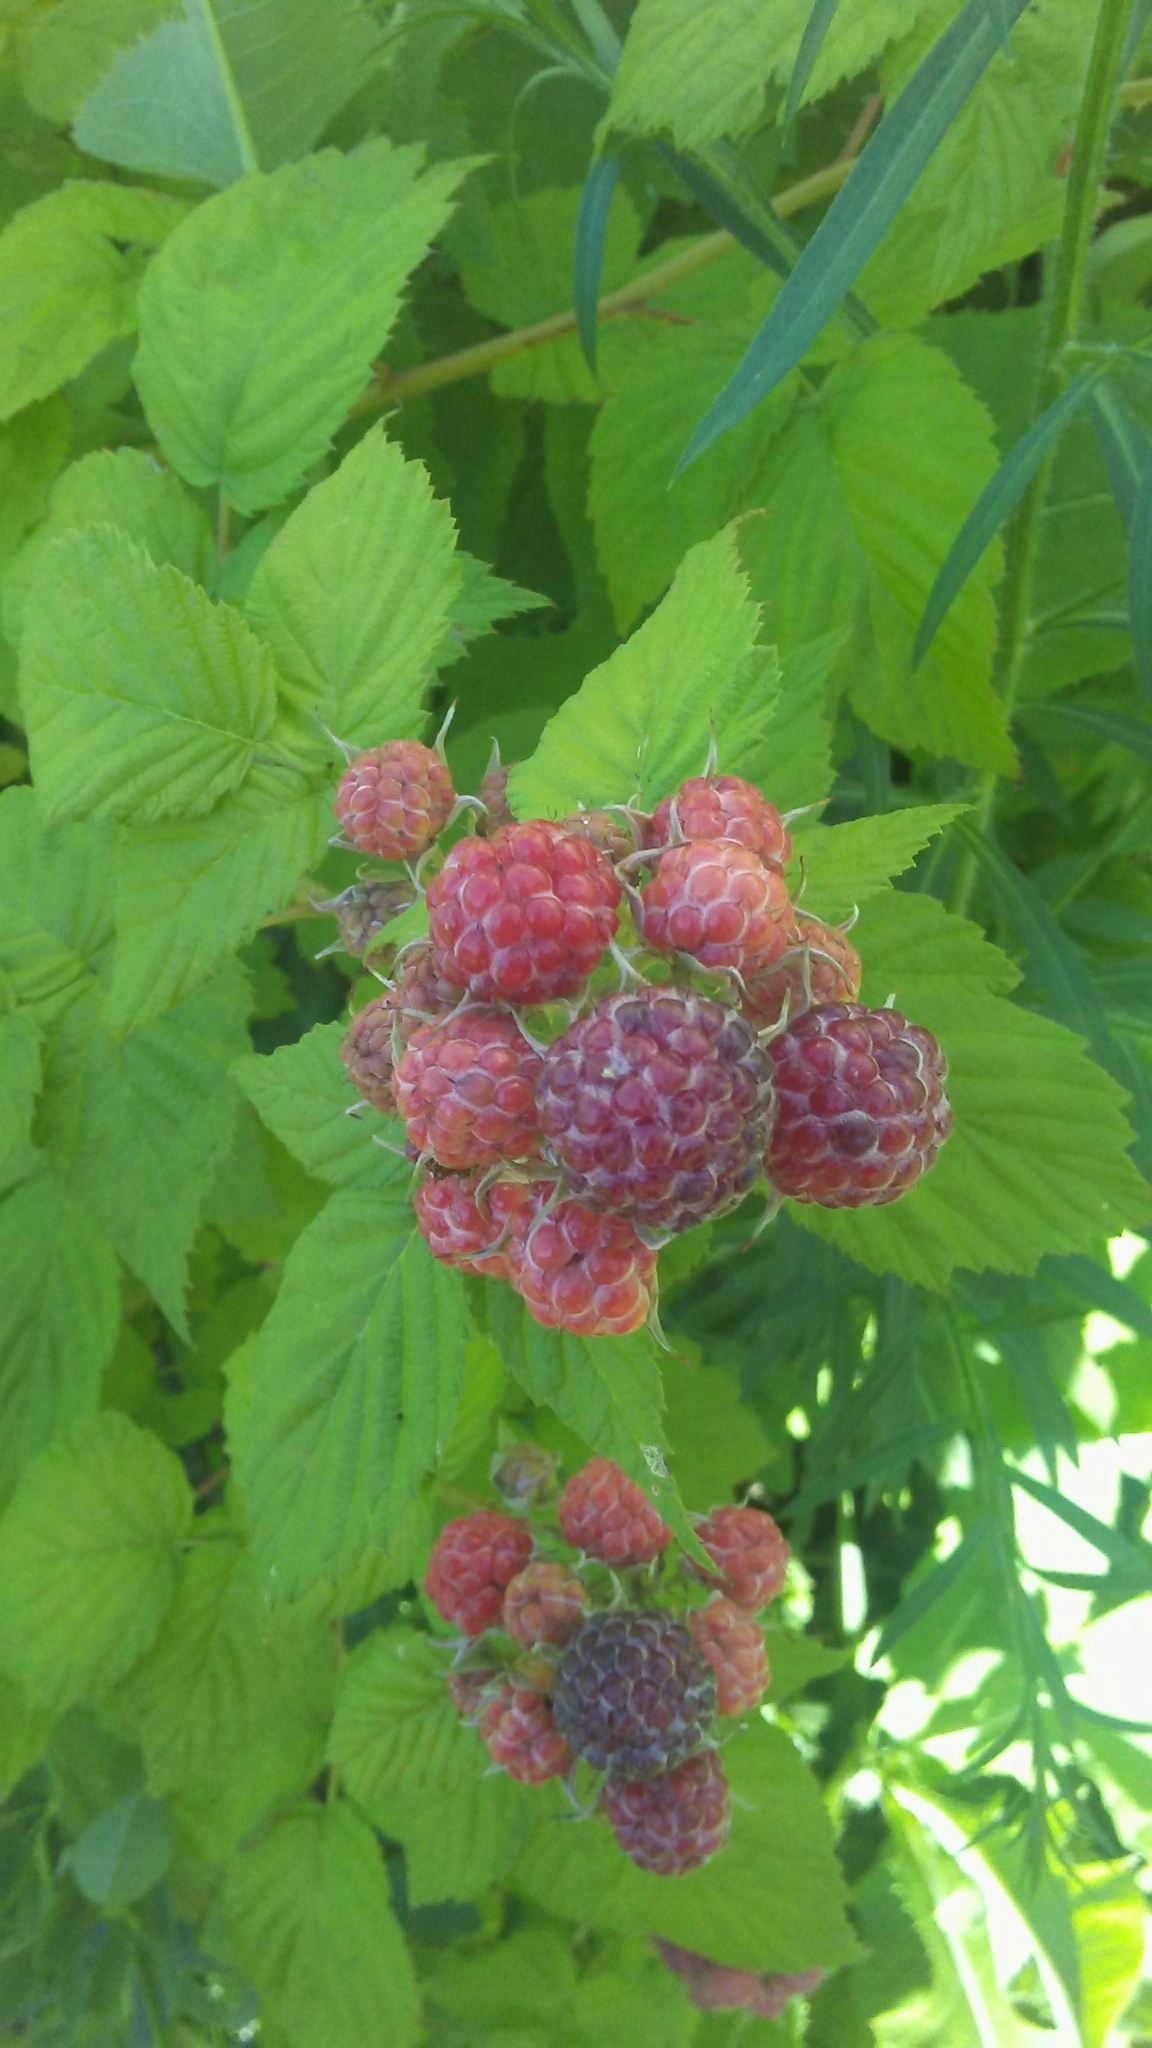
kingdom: Plantae
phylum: Tracheophyta
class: Magnoliopsida
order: Rosales
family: Rosaceae
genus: Rubus
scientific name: Rubus occidentalis
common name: Black raspberry
